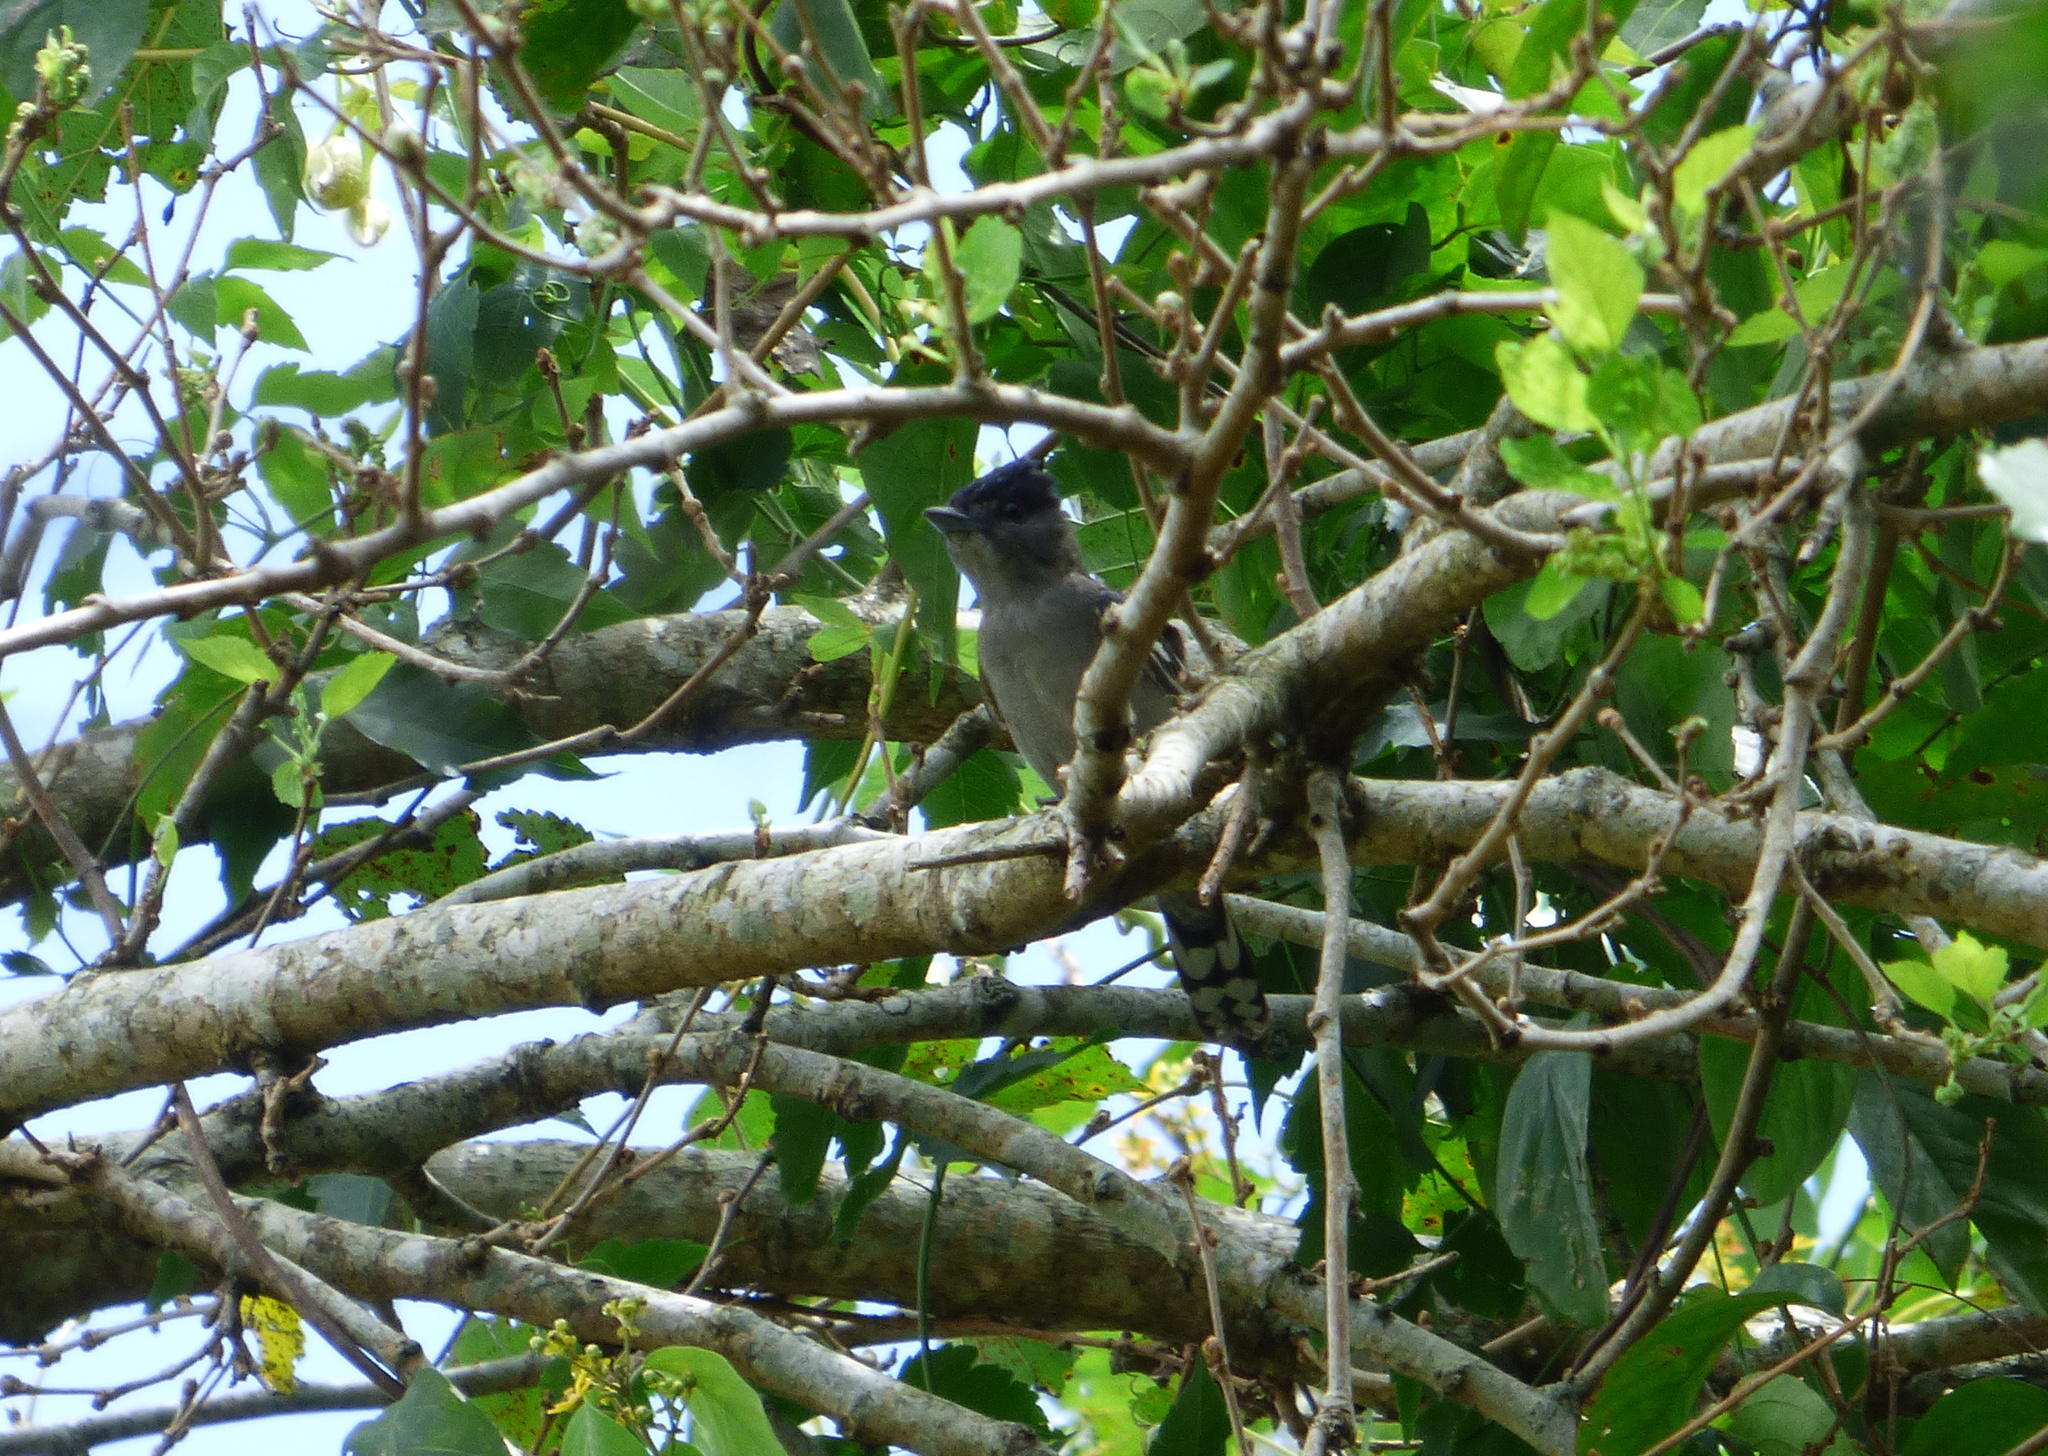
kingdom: Animalia
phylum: Chordata
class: Aves
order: Passeriformes
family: Cotingidae
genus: Pachyramphus
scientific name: Pachyramphus polychopterus
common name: White-winged becard
